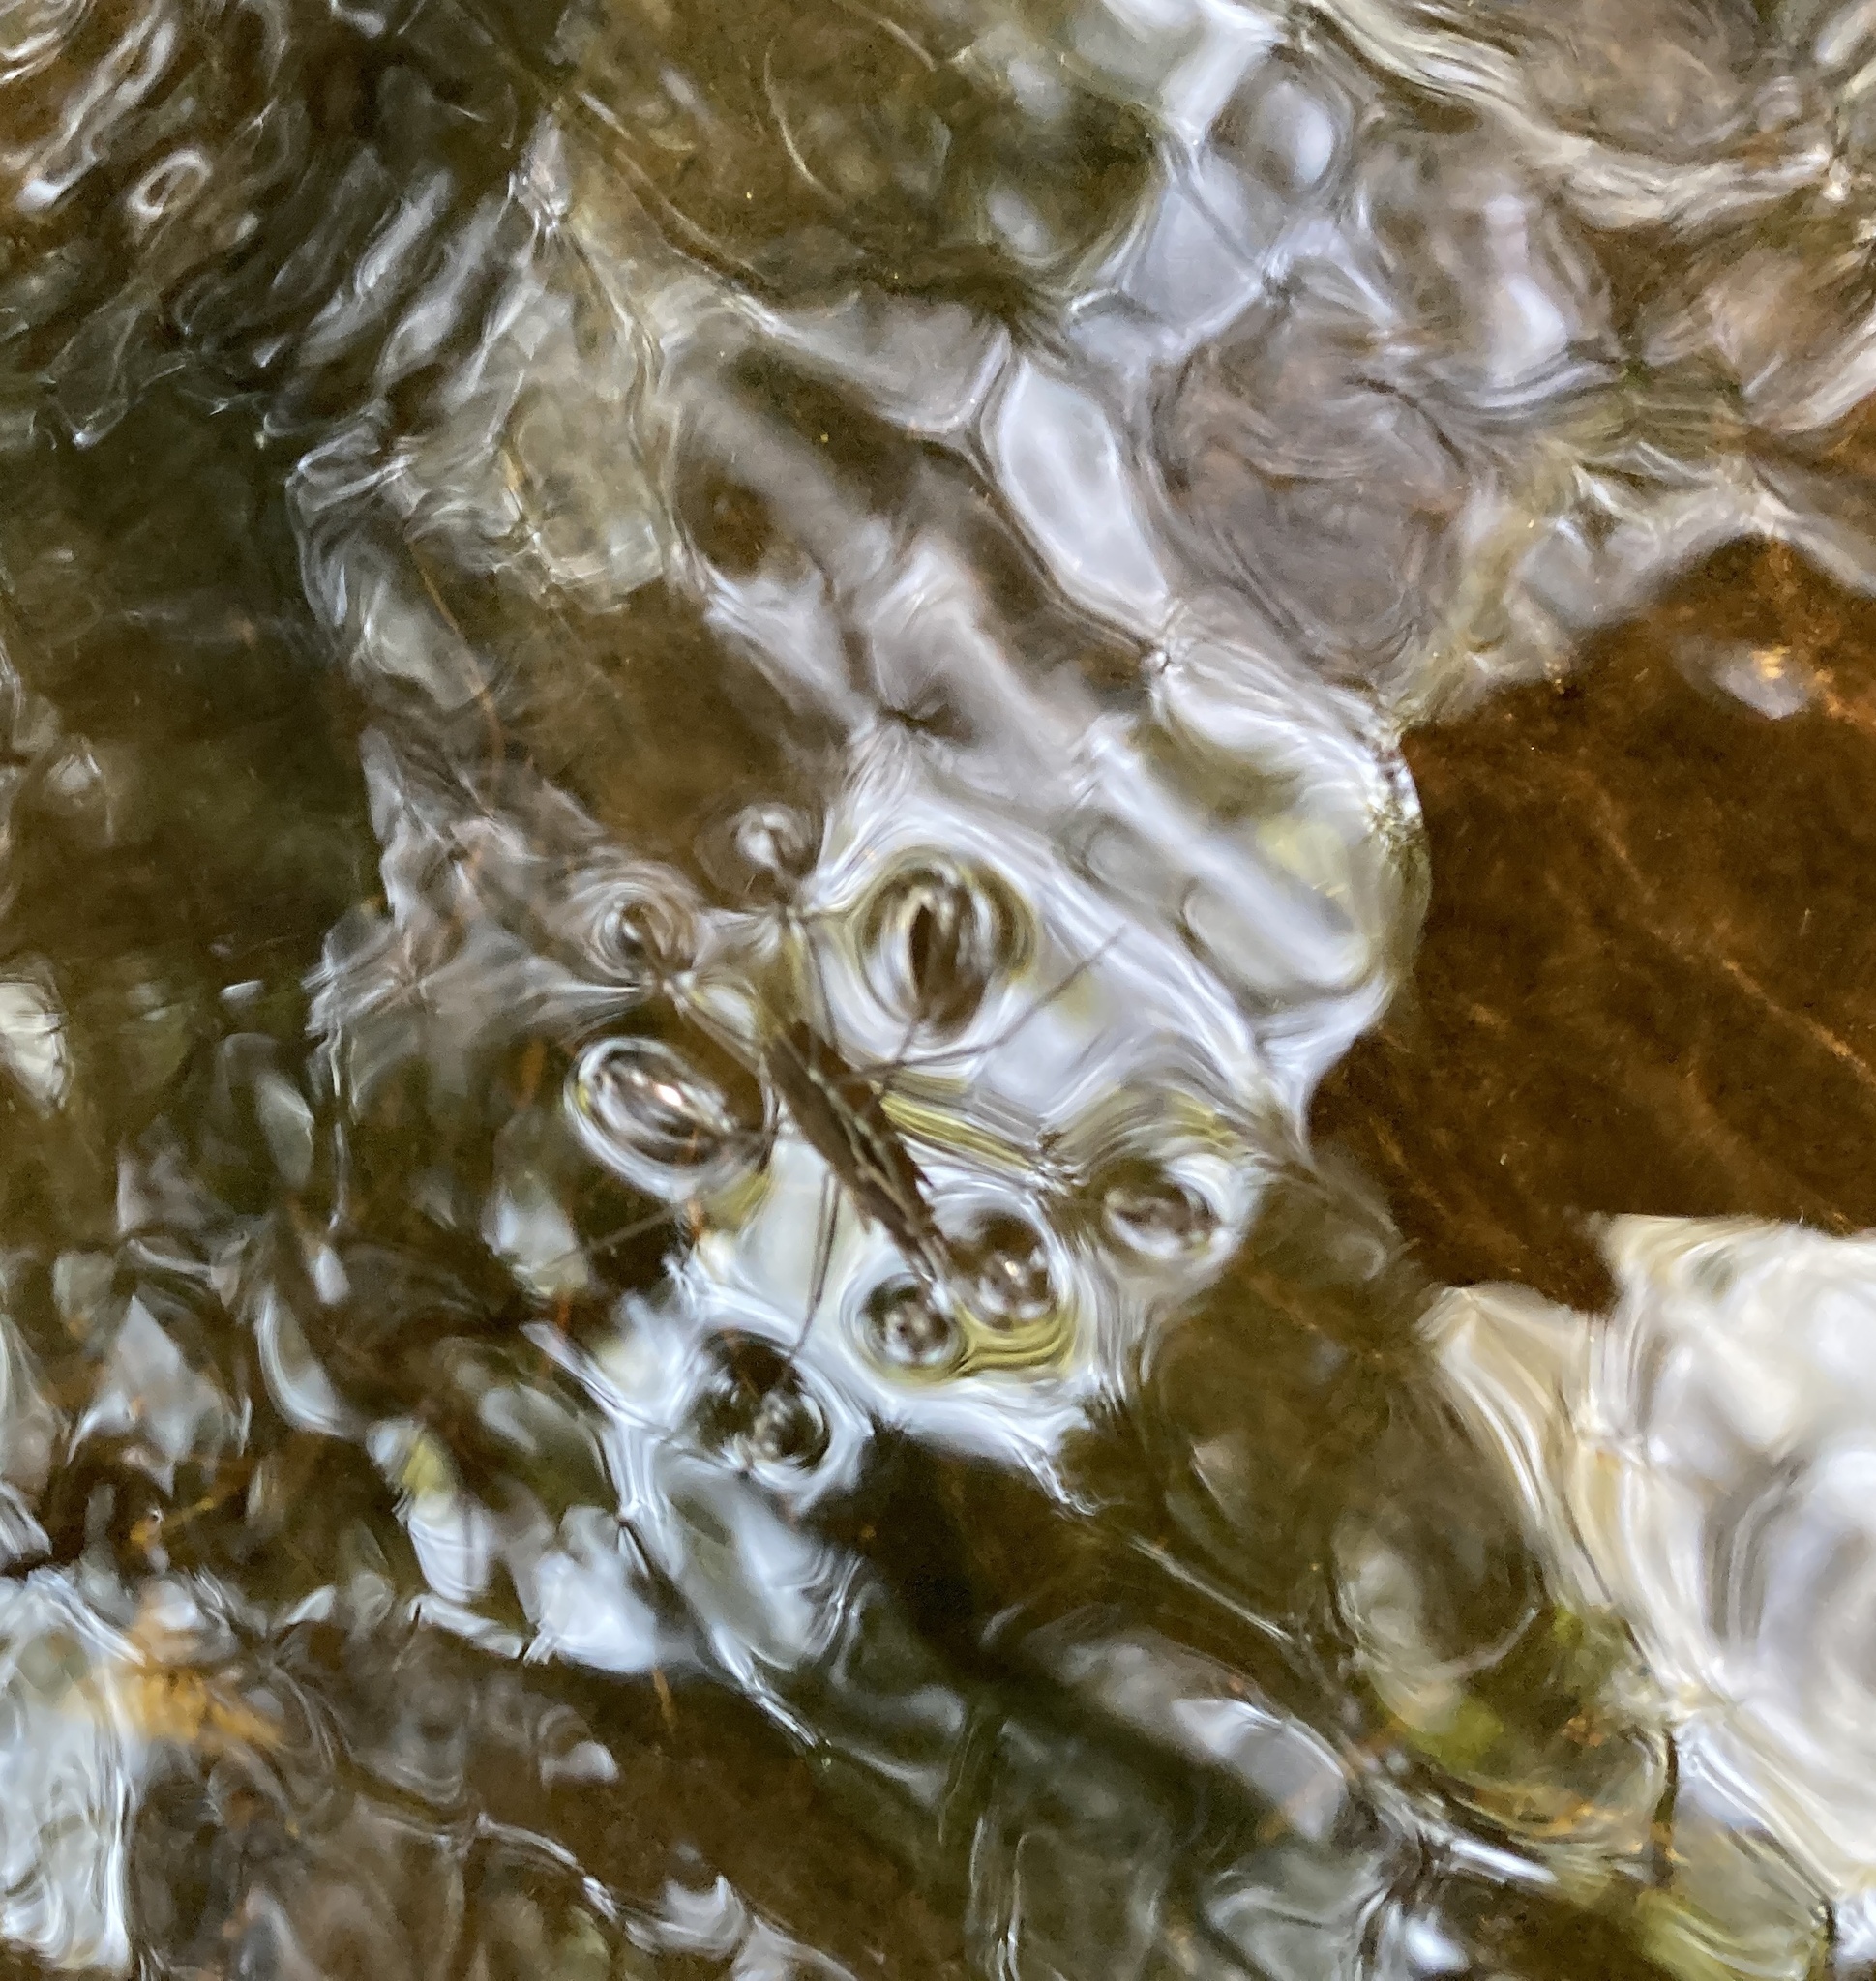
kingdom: Animalia
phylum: Arthropoda
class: Insecta
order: Hemiptera
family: Gerridae
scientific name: Gerridae
